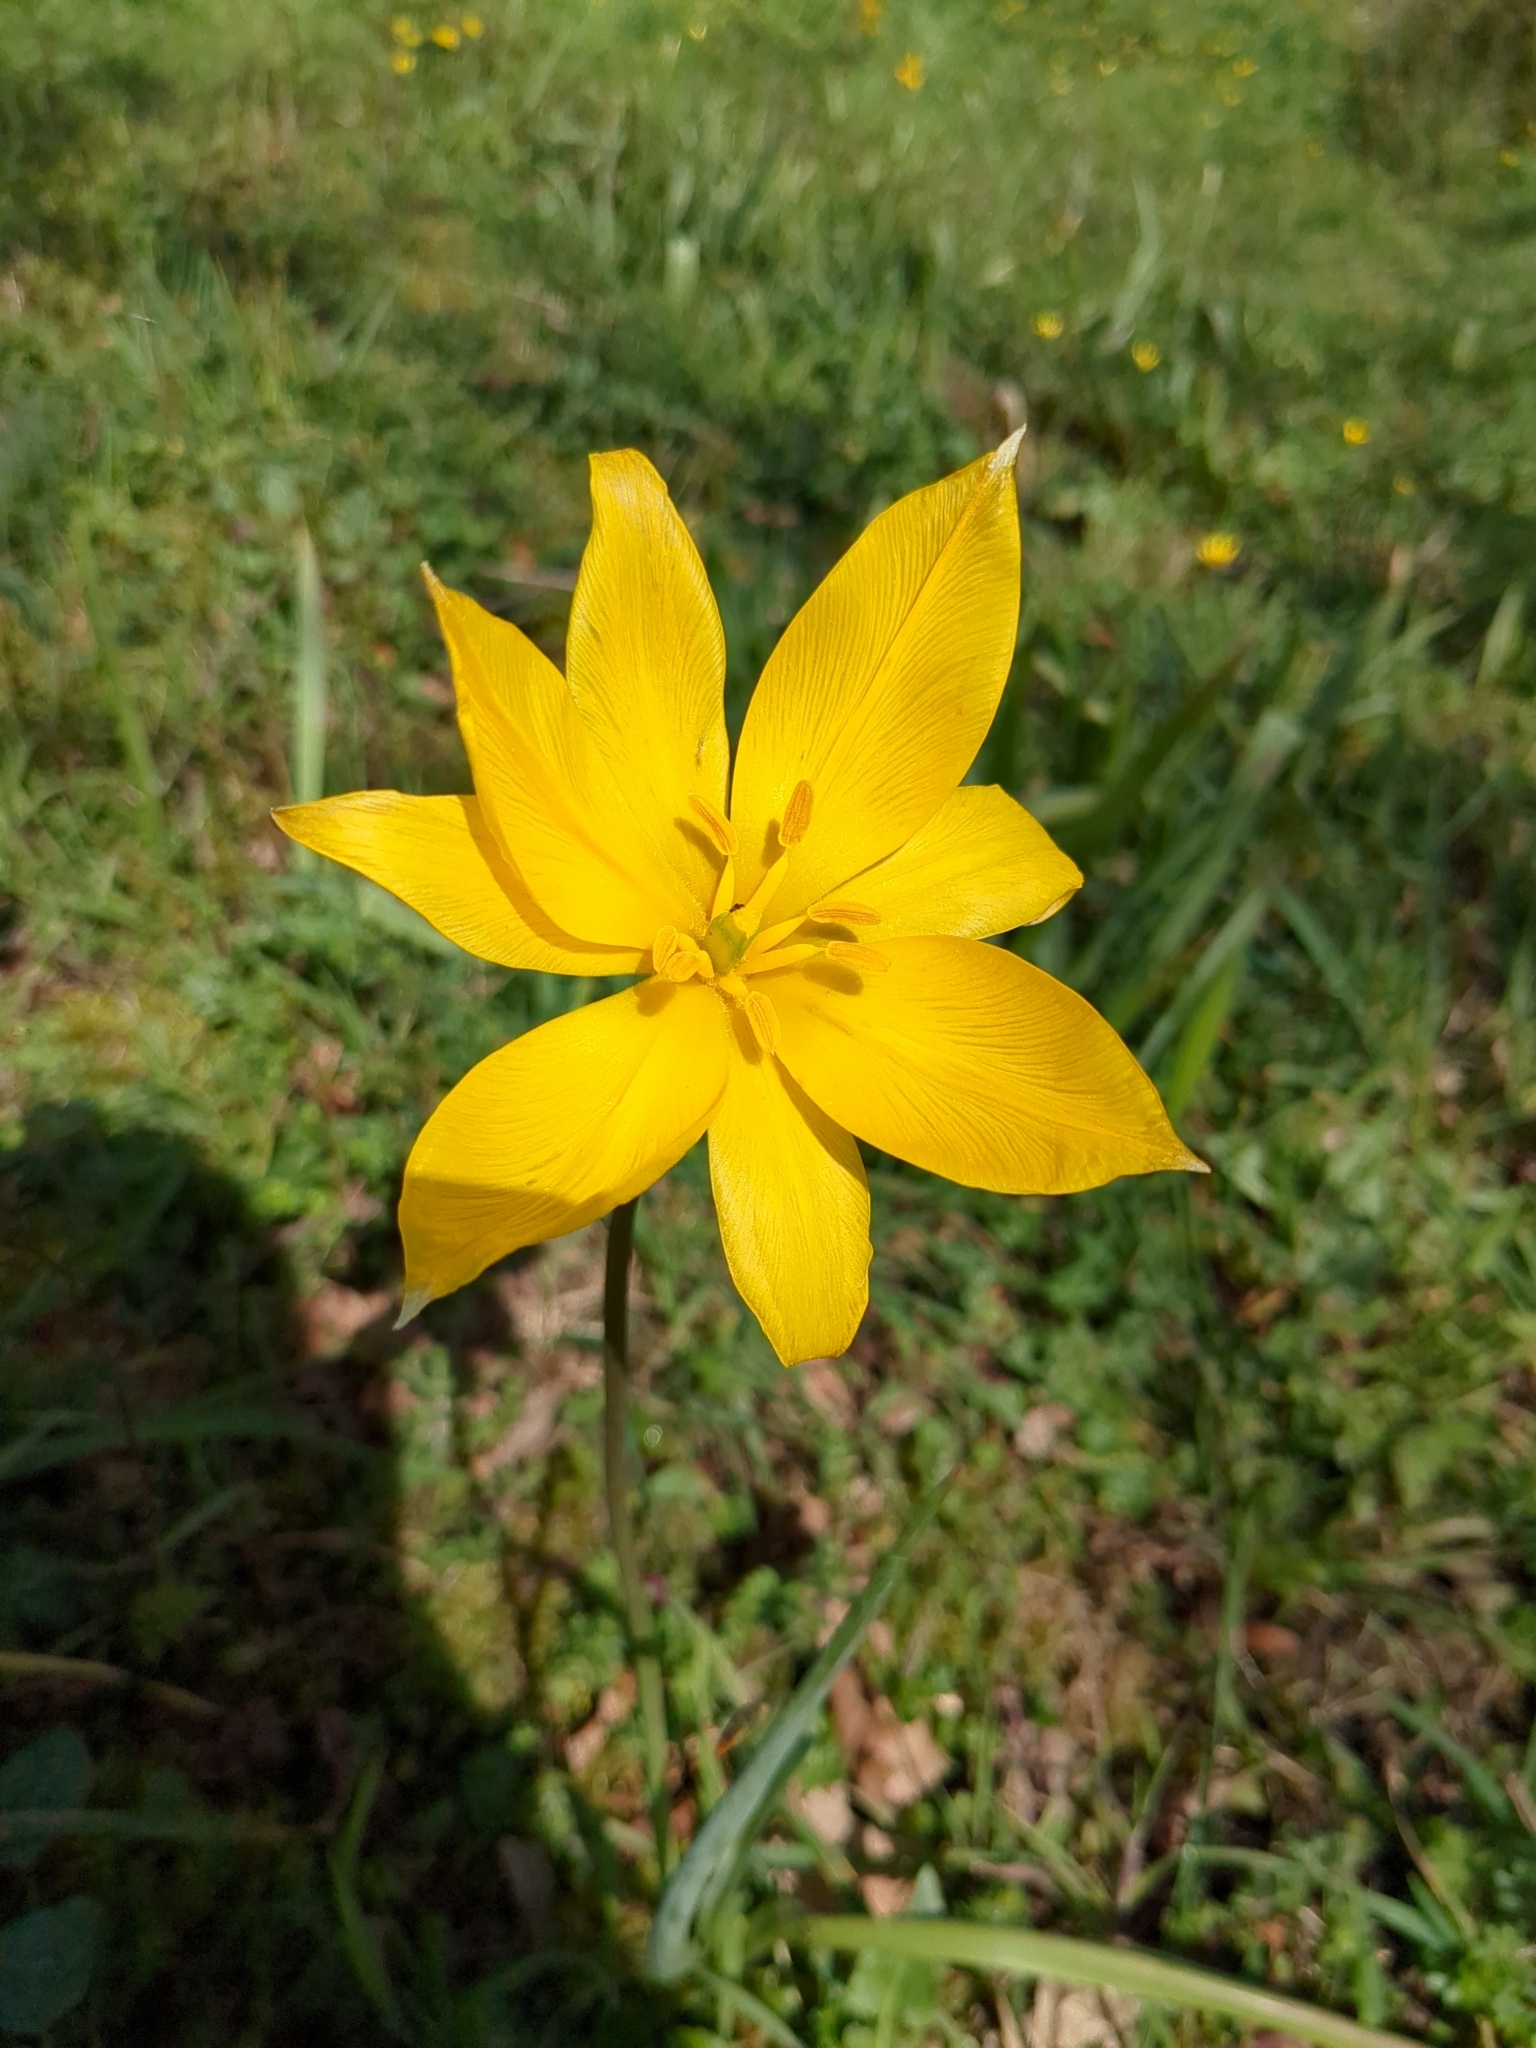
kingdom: Plantae
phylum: Tracheophyta
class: Liliopsida
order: Liliales
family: Liliaceae
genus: Tulipa
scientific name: Tulipa sylvestris
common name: Wild tulip
